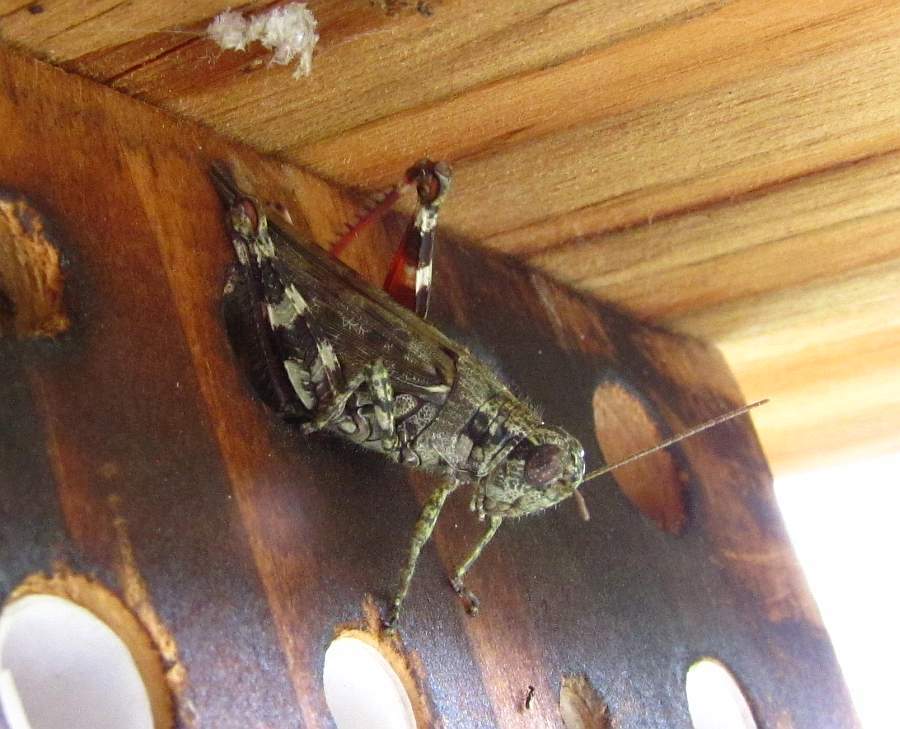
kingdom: Animalia
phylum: Arthropoda
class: Insecta
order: Orthoptera
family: Acrididae
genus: Melanoplus
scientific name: Melanoplus punctulatus
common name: Pine-tree spur-throat grasshopper
